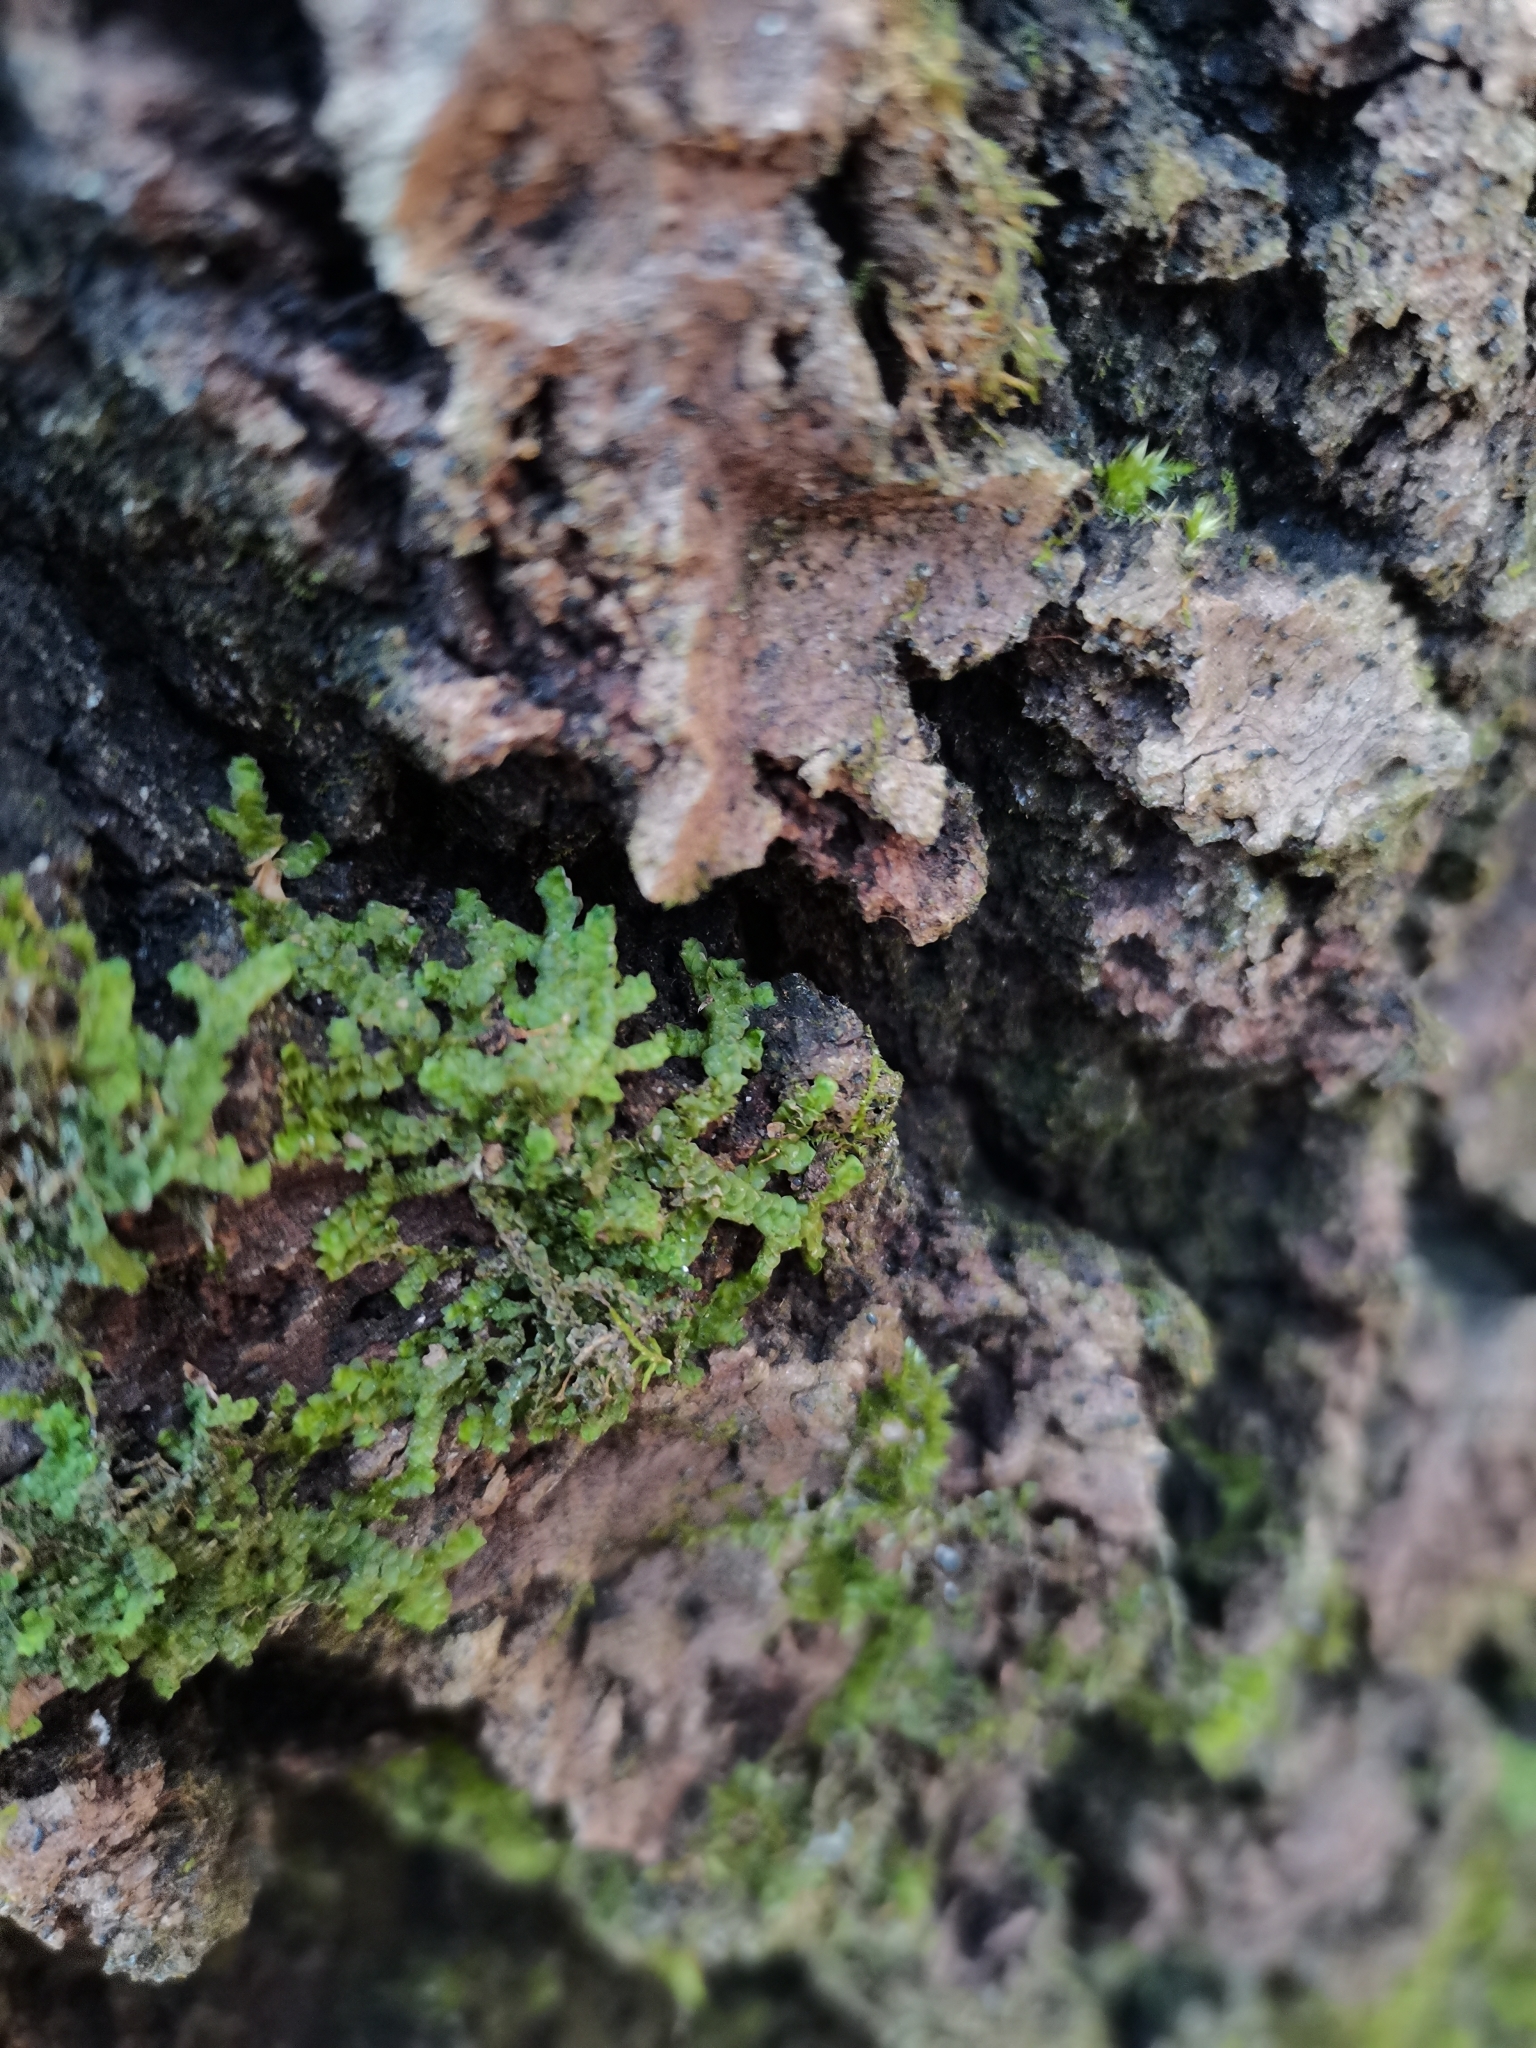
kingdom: Plantae
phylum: Marchantiophyta
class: Jungermanniopsida
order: Porellales
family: Porellaceae
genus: Porella
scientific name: Porella platyphylla
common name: Wall scalewort
